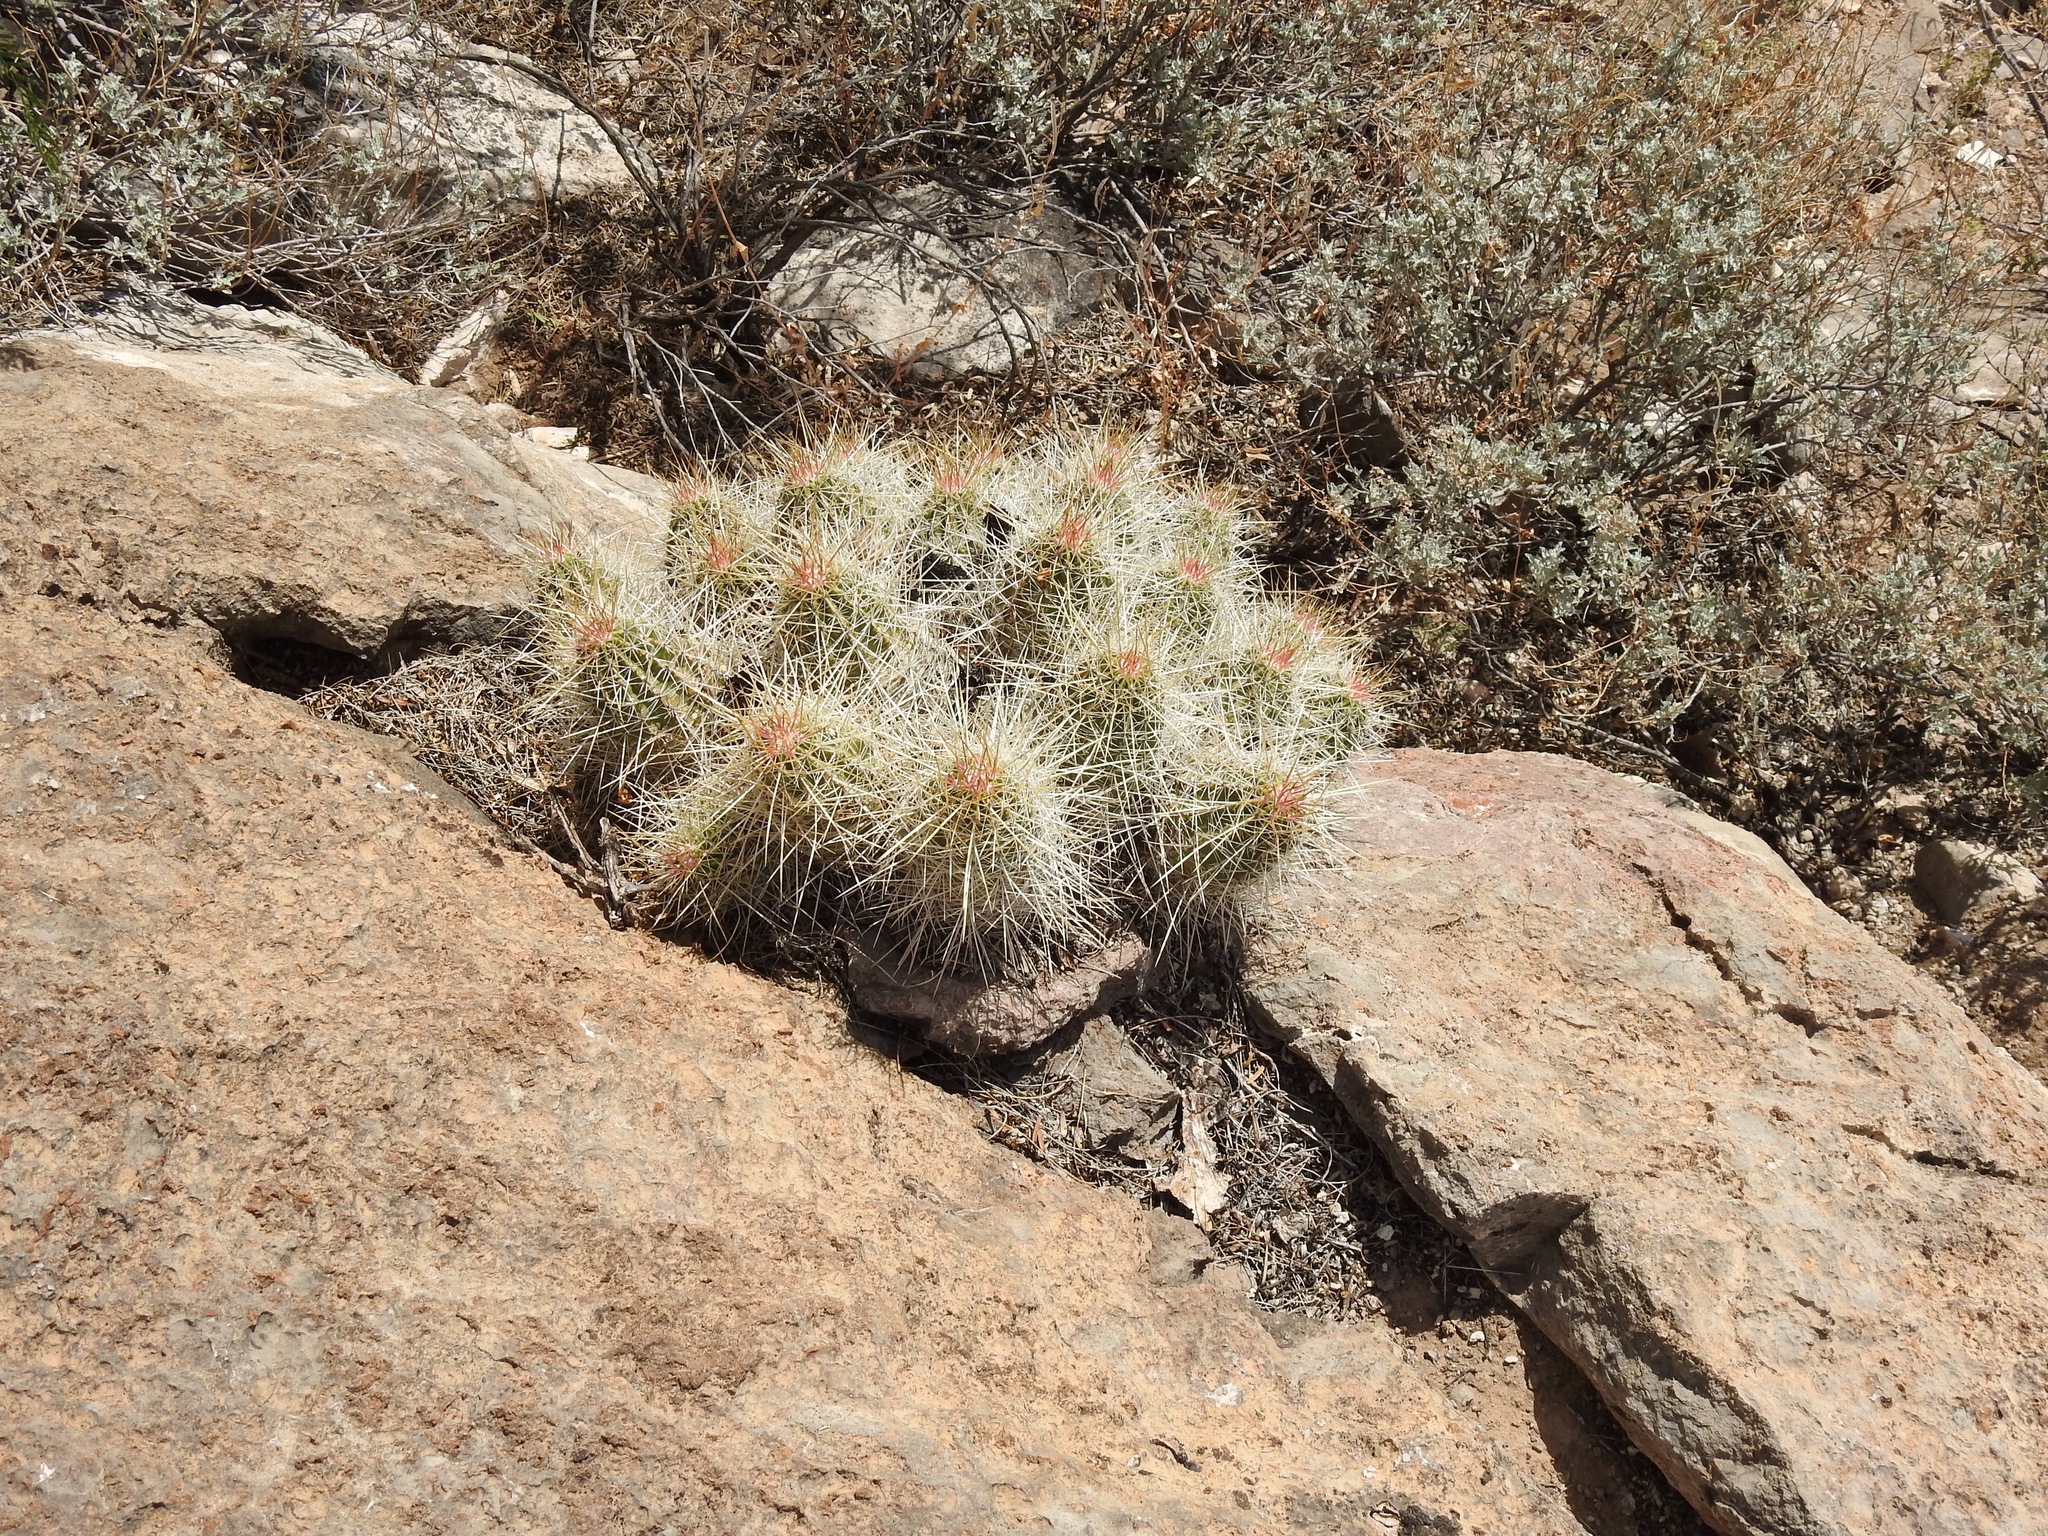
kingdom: Plantae
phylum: Tracheophyta
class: Magnoliopsida
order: Caryophyllales
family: Cactaceae
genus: Echinocereus
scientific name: Echinocereus stramineus
